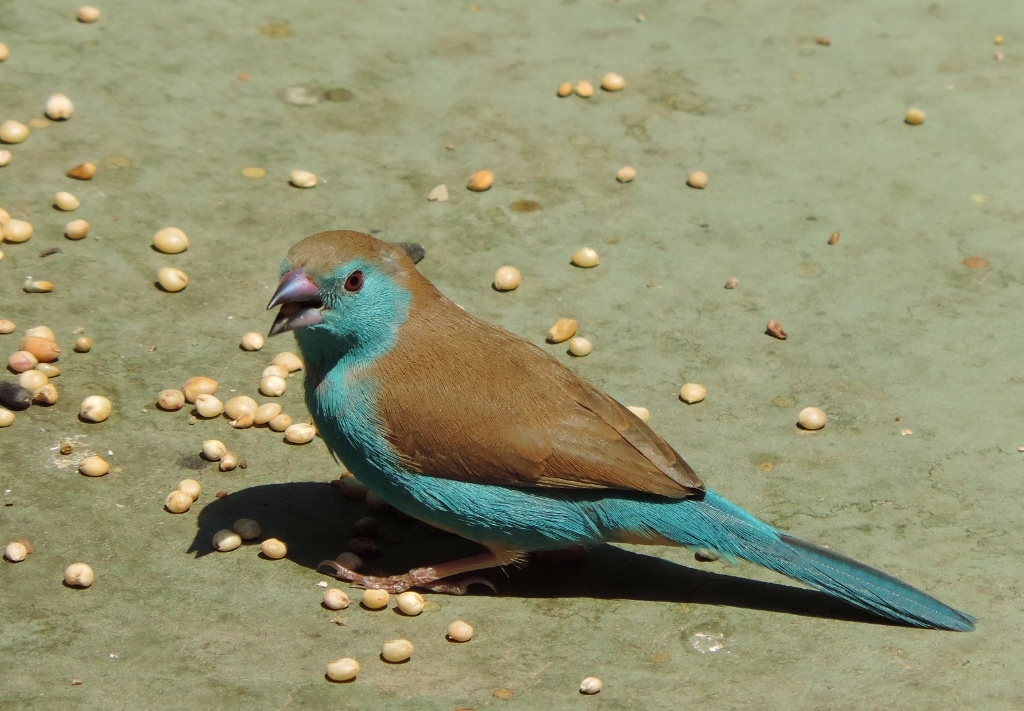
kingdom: Animalia
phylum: Chordata
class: Aves
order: Passeriformes
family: Estrildidae
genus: Uraeginthus
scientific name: Uraeginthus angolensis
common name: Blue waxbill
